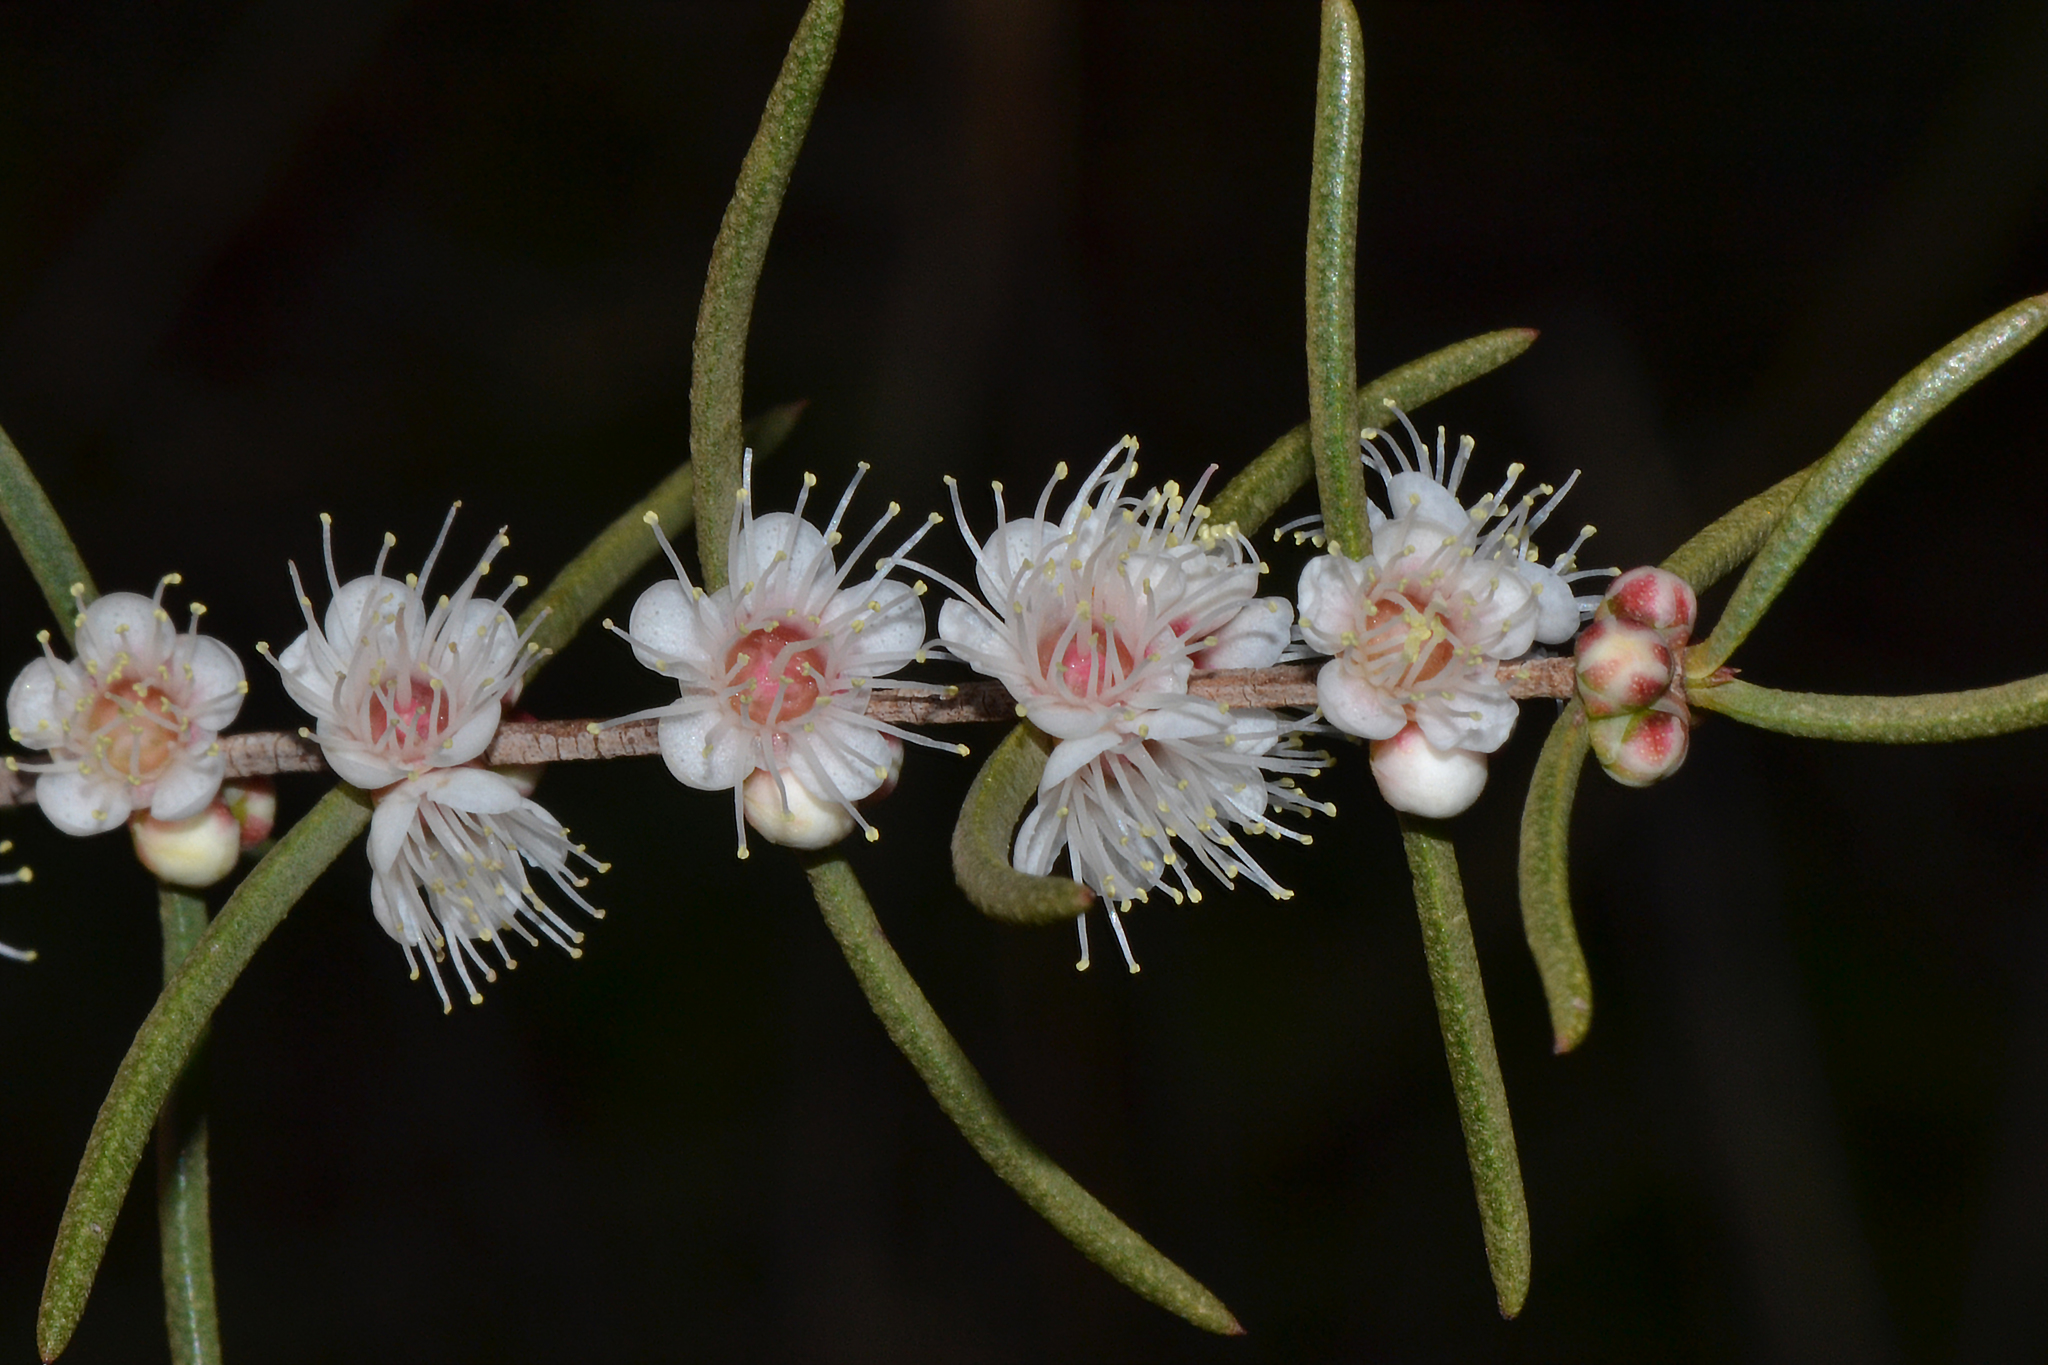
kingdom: Plantae
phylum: Tracheophyta
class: Magnoliopsida
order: Myrtales
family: Myrtaceae
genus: Hypocalymma
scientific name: Hypocalymma angustifolium
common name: White myrtle
